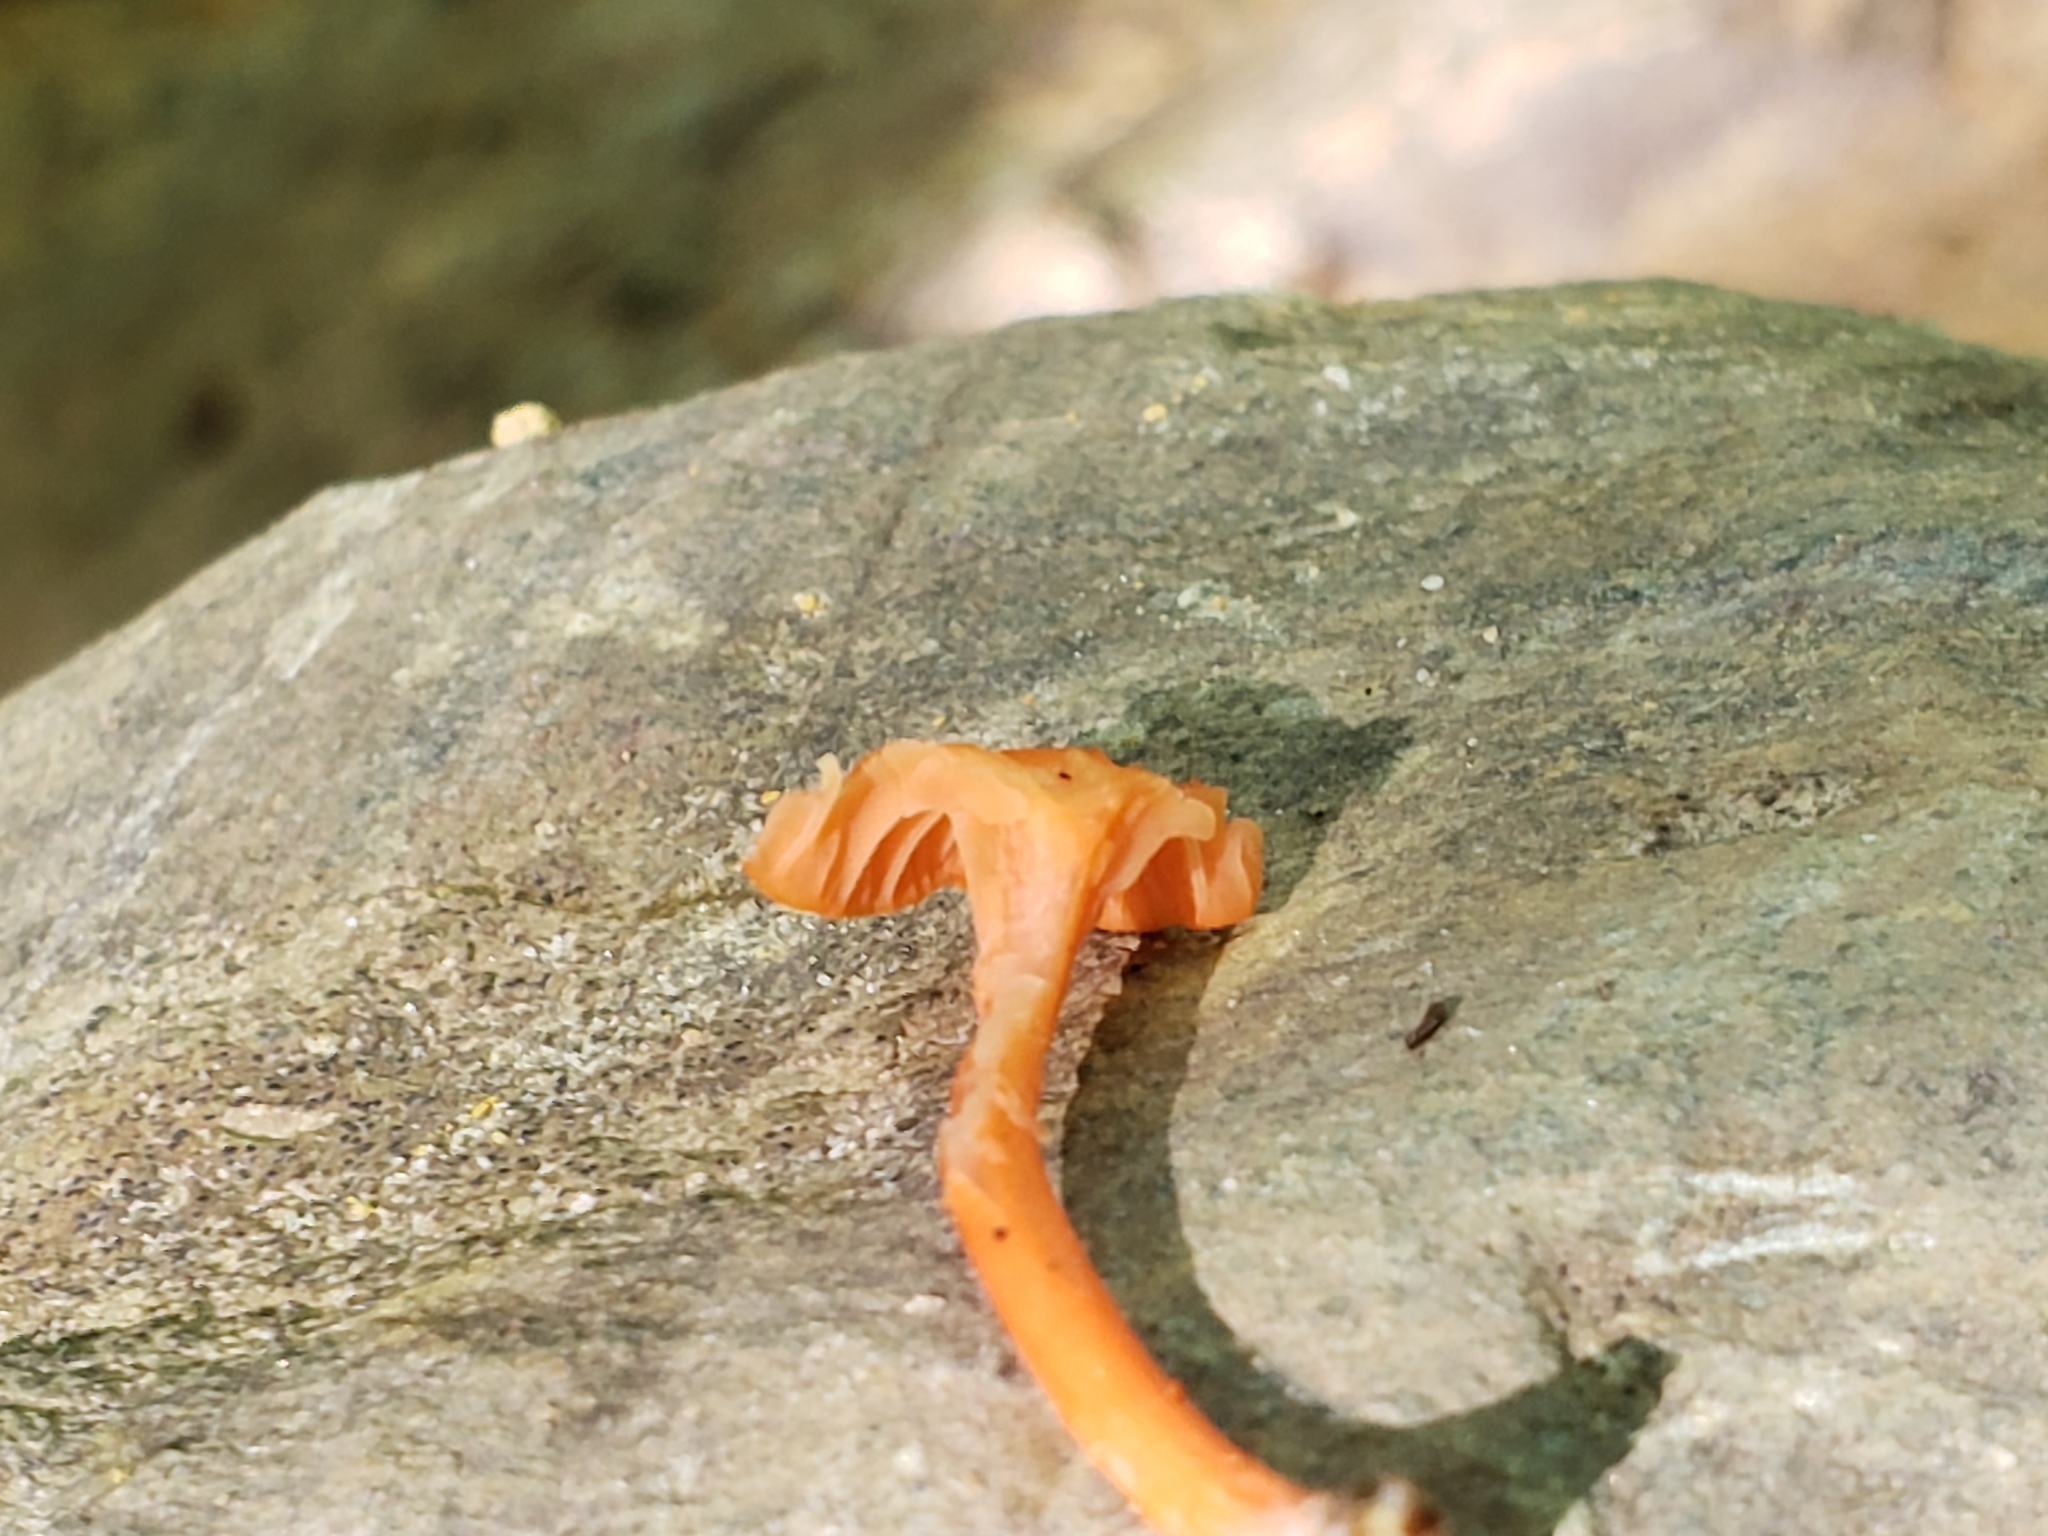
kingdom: Fungi
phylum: Basidiomycota
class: Agaricomycetes
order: Cantharellales
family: Hydnaceae
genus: Cantharellus
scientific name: Cantharellus cinnabarinus
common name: Cinnabar chanterelle
